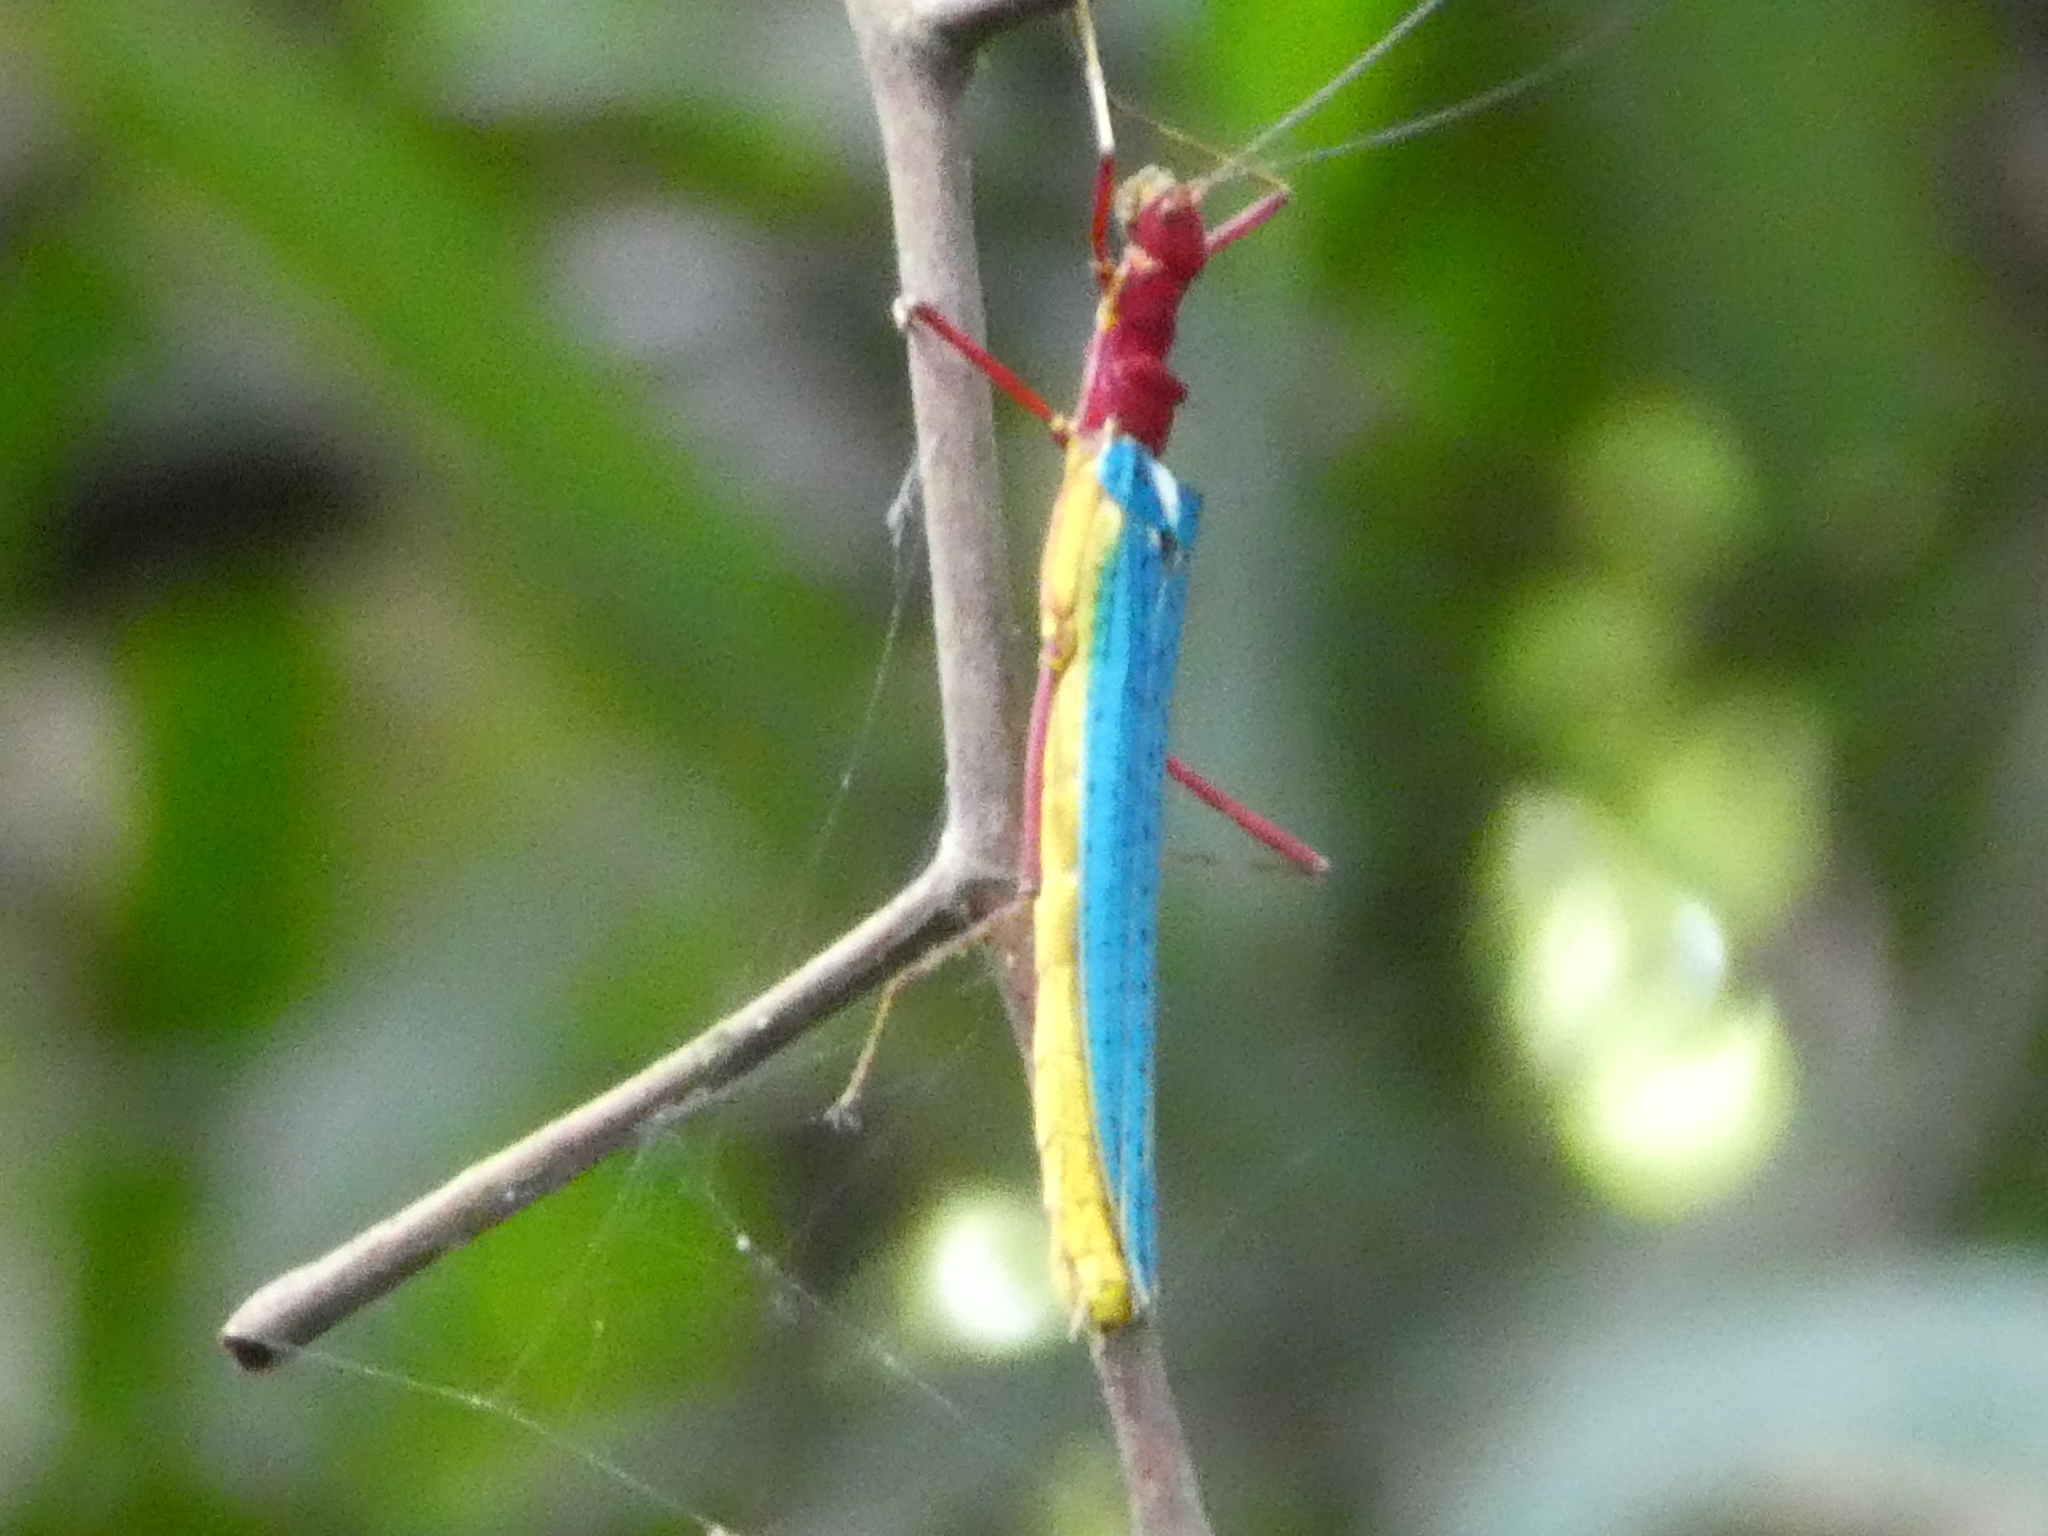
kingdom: Animalia
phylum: Arthropoda
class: Insecta
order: Phasmida
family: Lonchodidae
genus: Calvisia
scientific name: Calvisia
